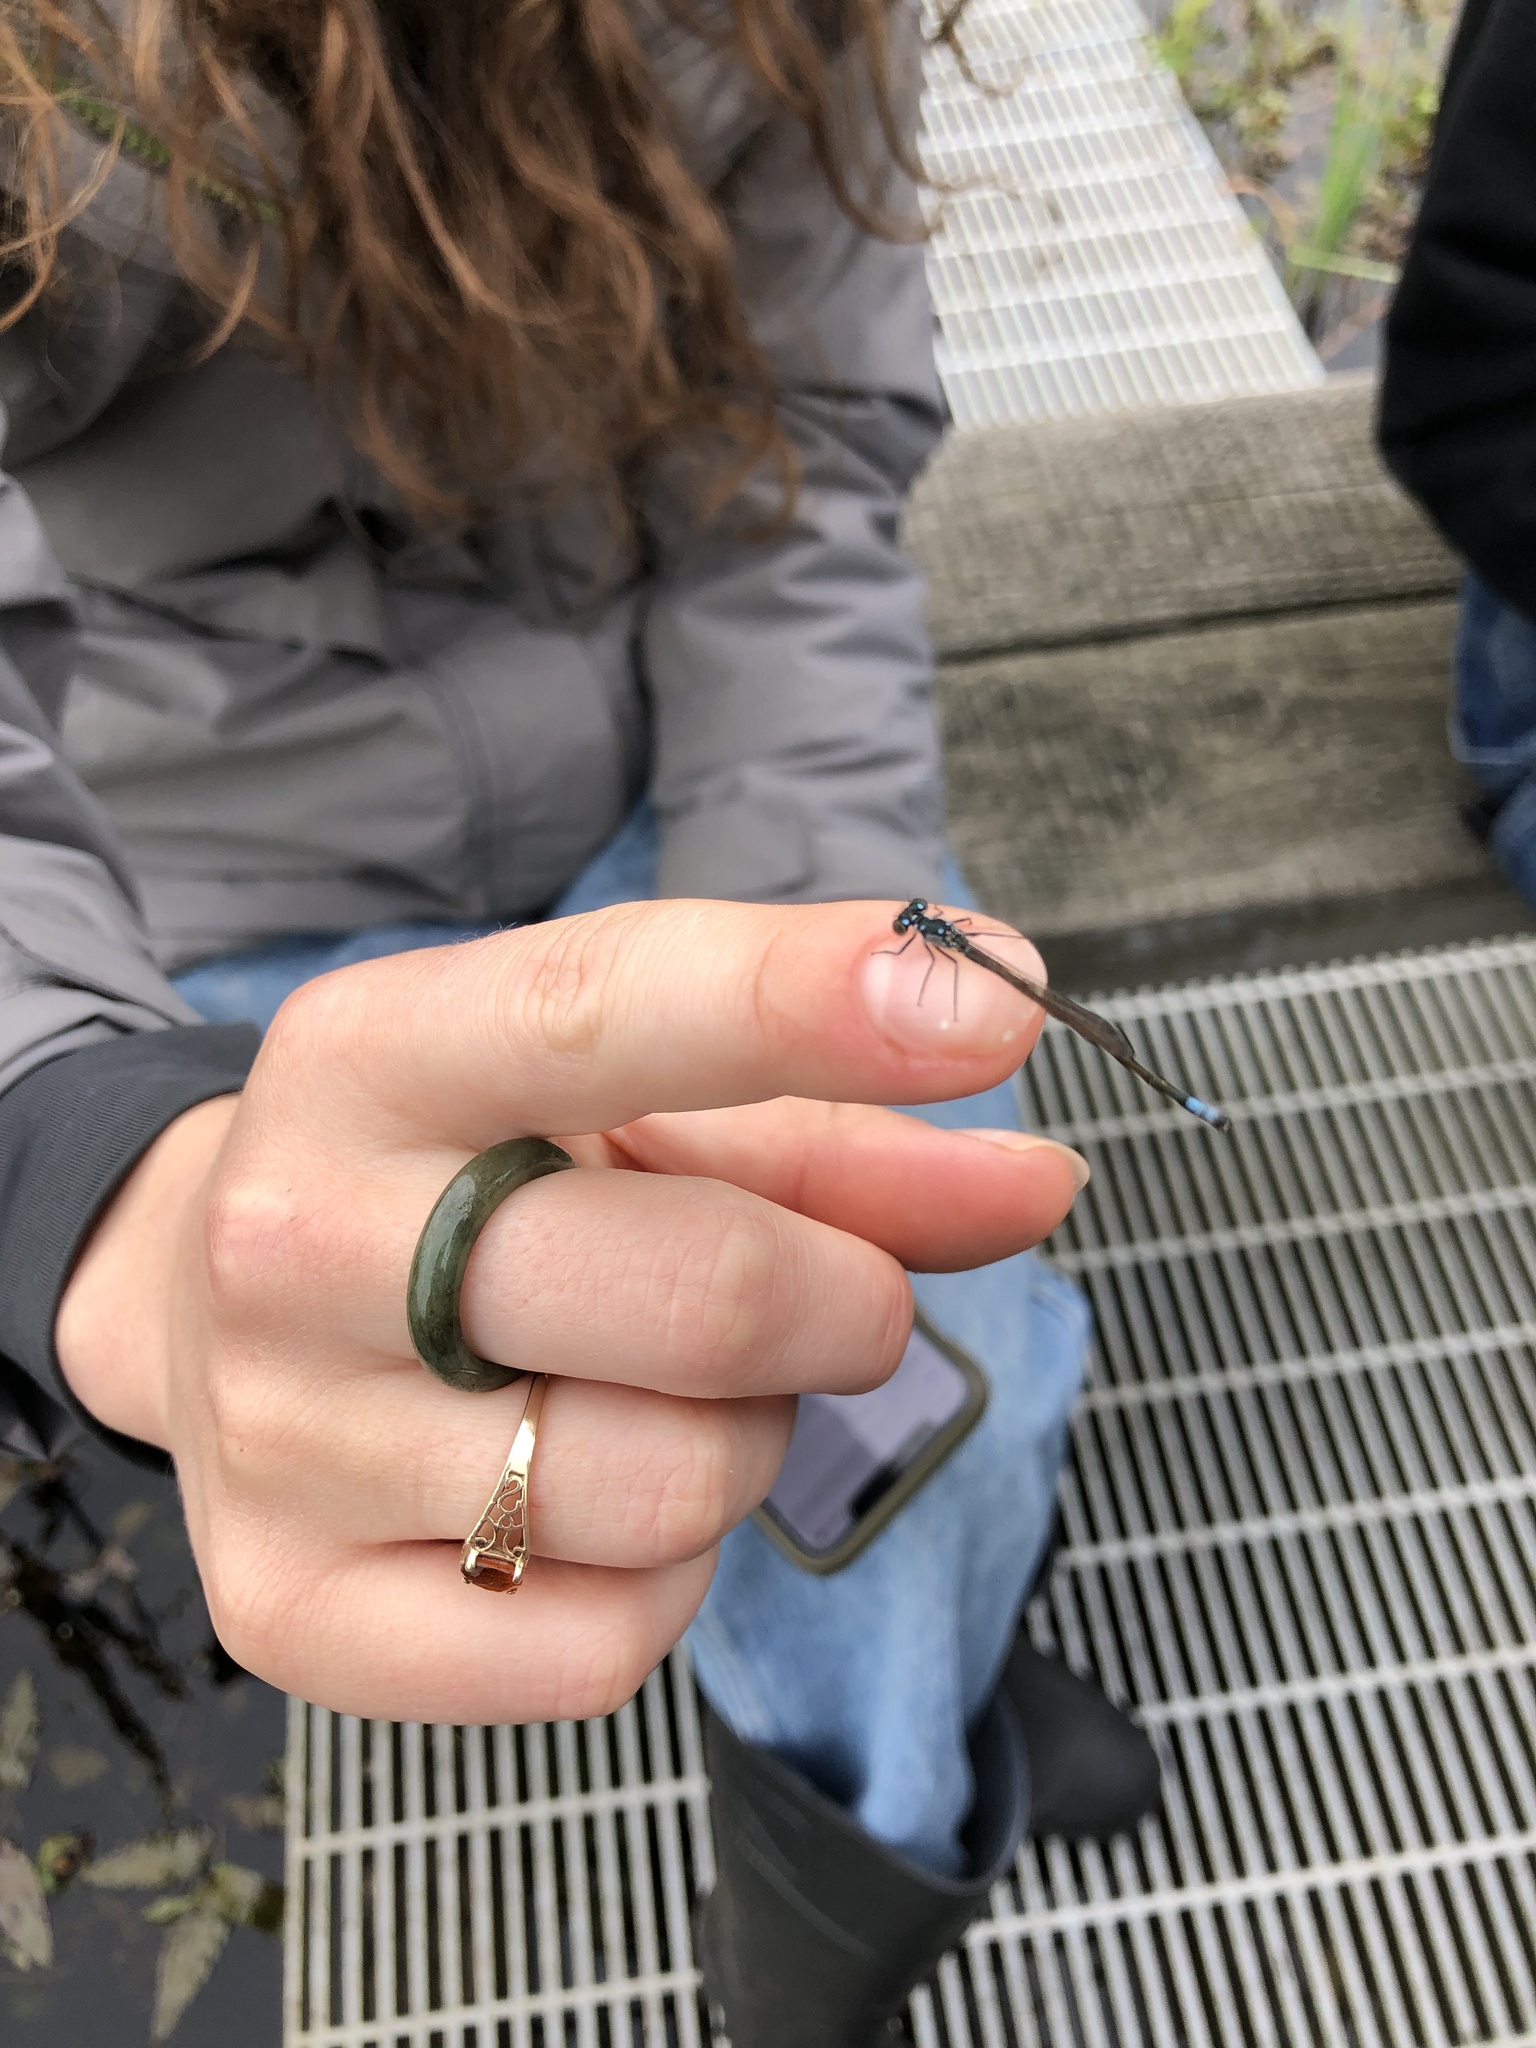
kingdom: Animalia
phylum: Arthropoda
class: Insecta
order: Odonata
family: Coenagrionidae
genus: Ischnura
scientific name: Ischnura cervula
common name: Pacific forktail
